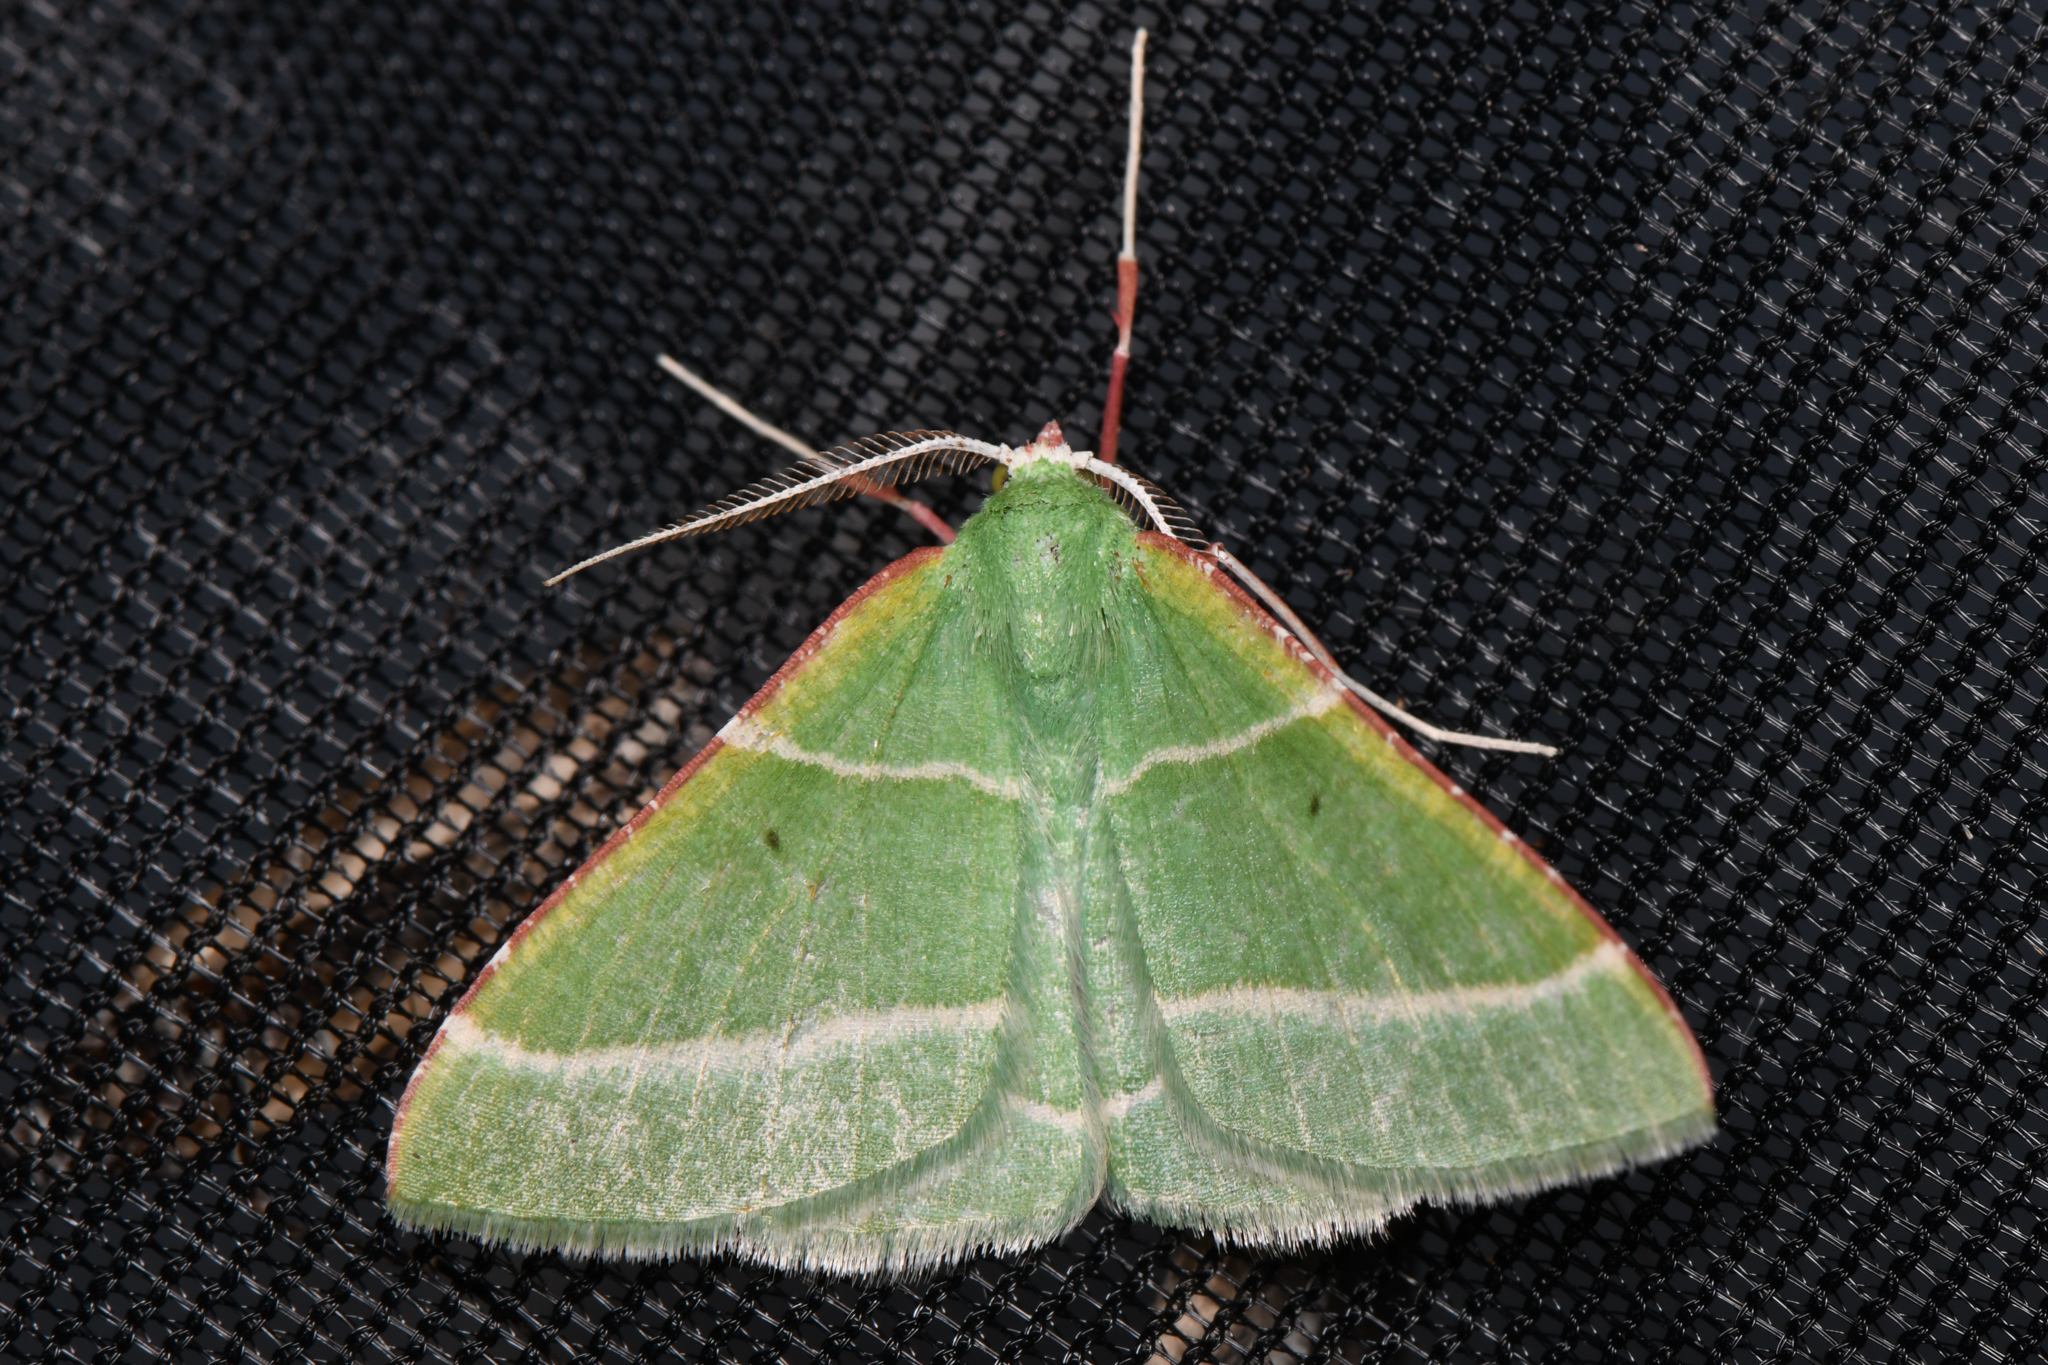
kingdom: Animalia
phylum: Arthropoda
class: Insecta
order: Lepidoptera
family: Geometridae
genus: Dichordophora
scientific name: Dichordophora phoenix
